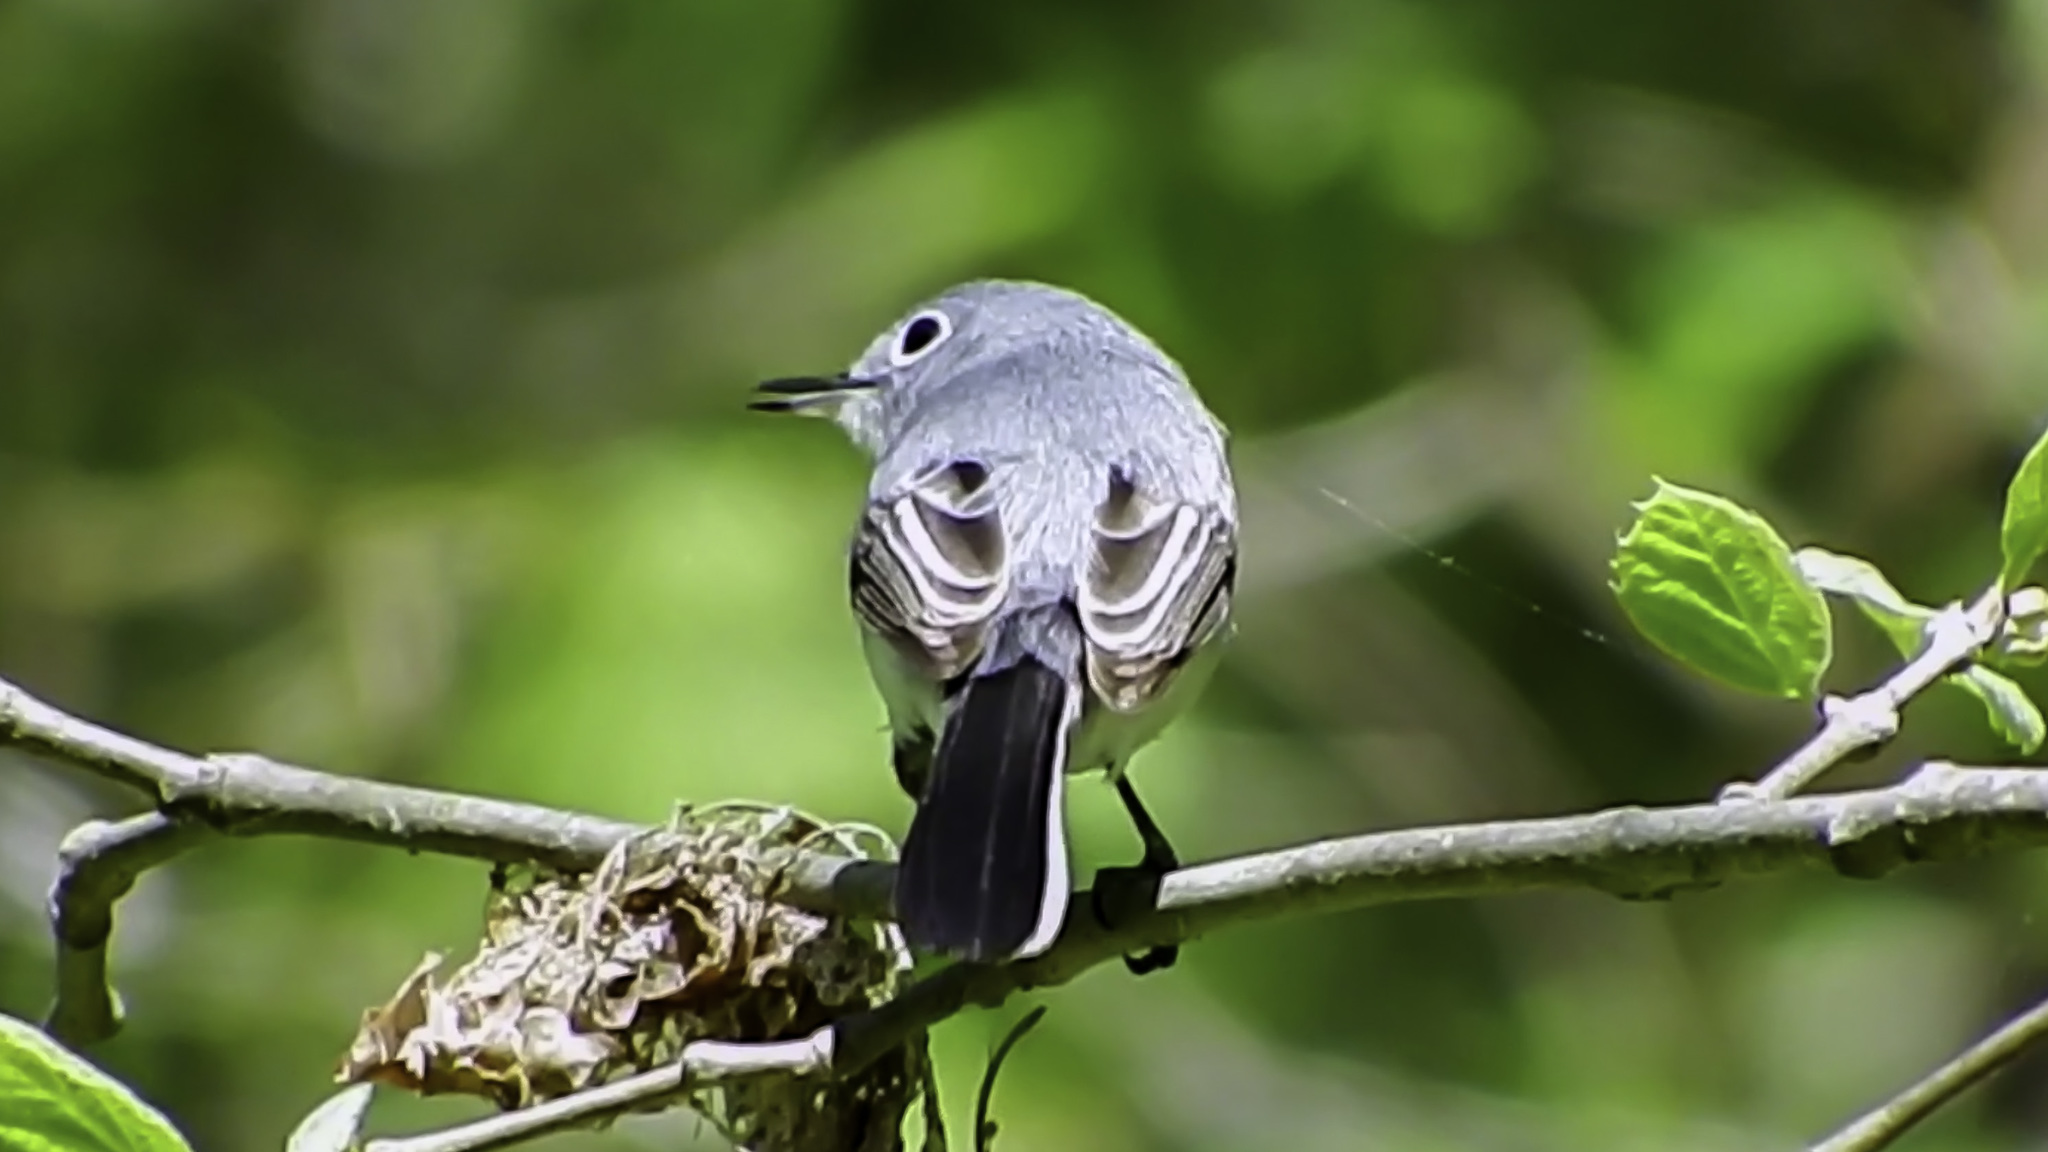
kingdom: Animalia
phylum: Chordata
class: Aves
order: Passeriformes
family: Polioptilidae
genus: Polioptila
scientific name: Polioptila caerulea
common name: Blue-gray gnatcatcher
